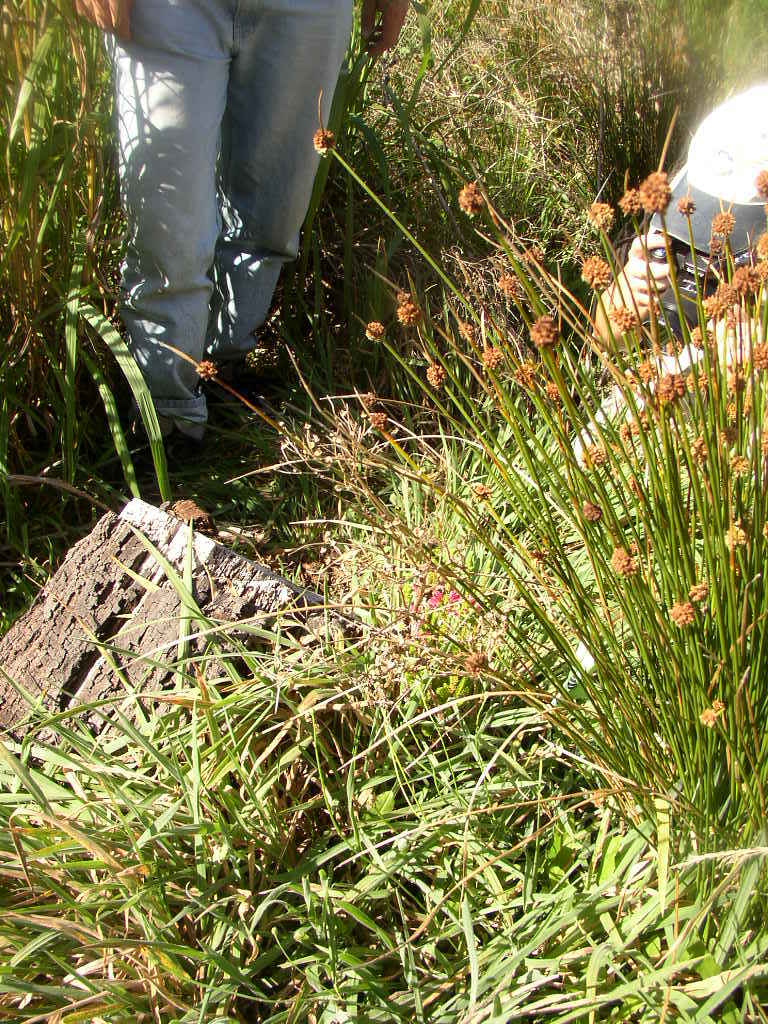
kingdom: Plantae
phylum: Tracheophyta
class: Liliopsida
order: Poales
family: Cyperaceae
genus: Ficinia
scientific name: Ficinia nodosa
